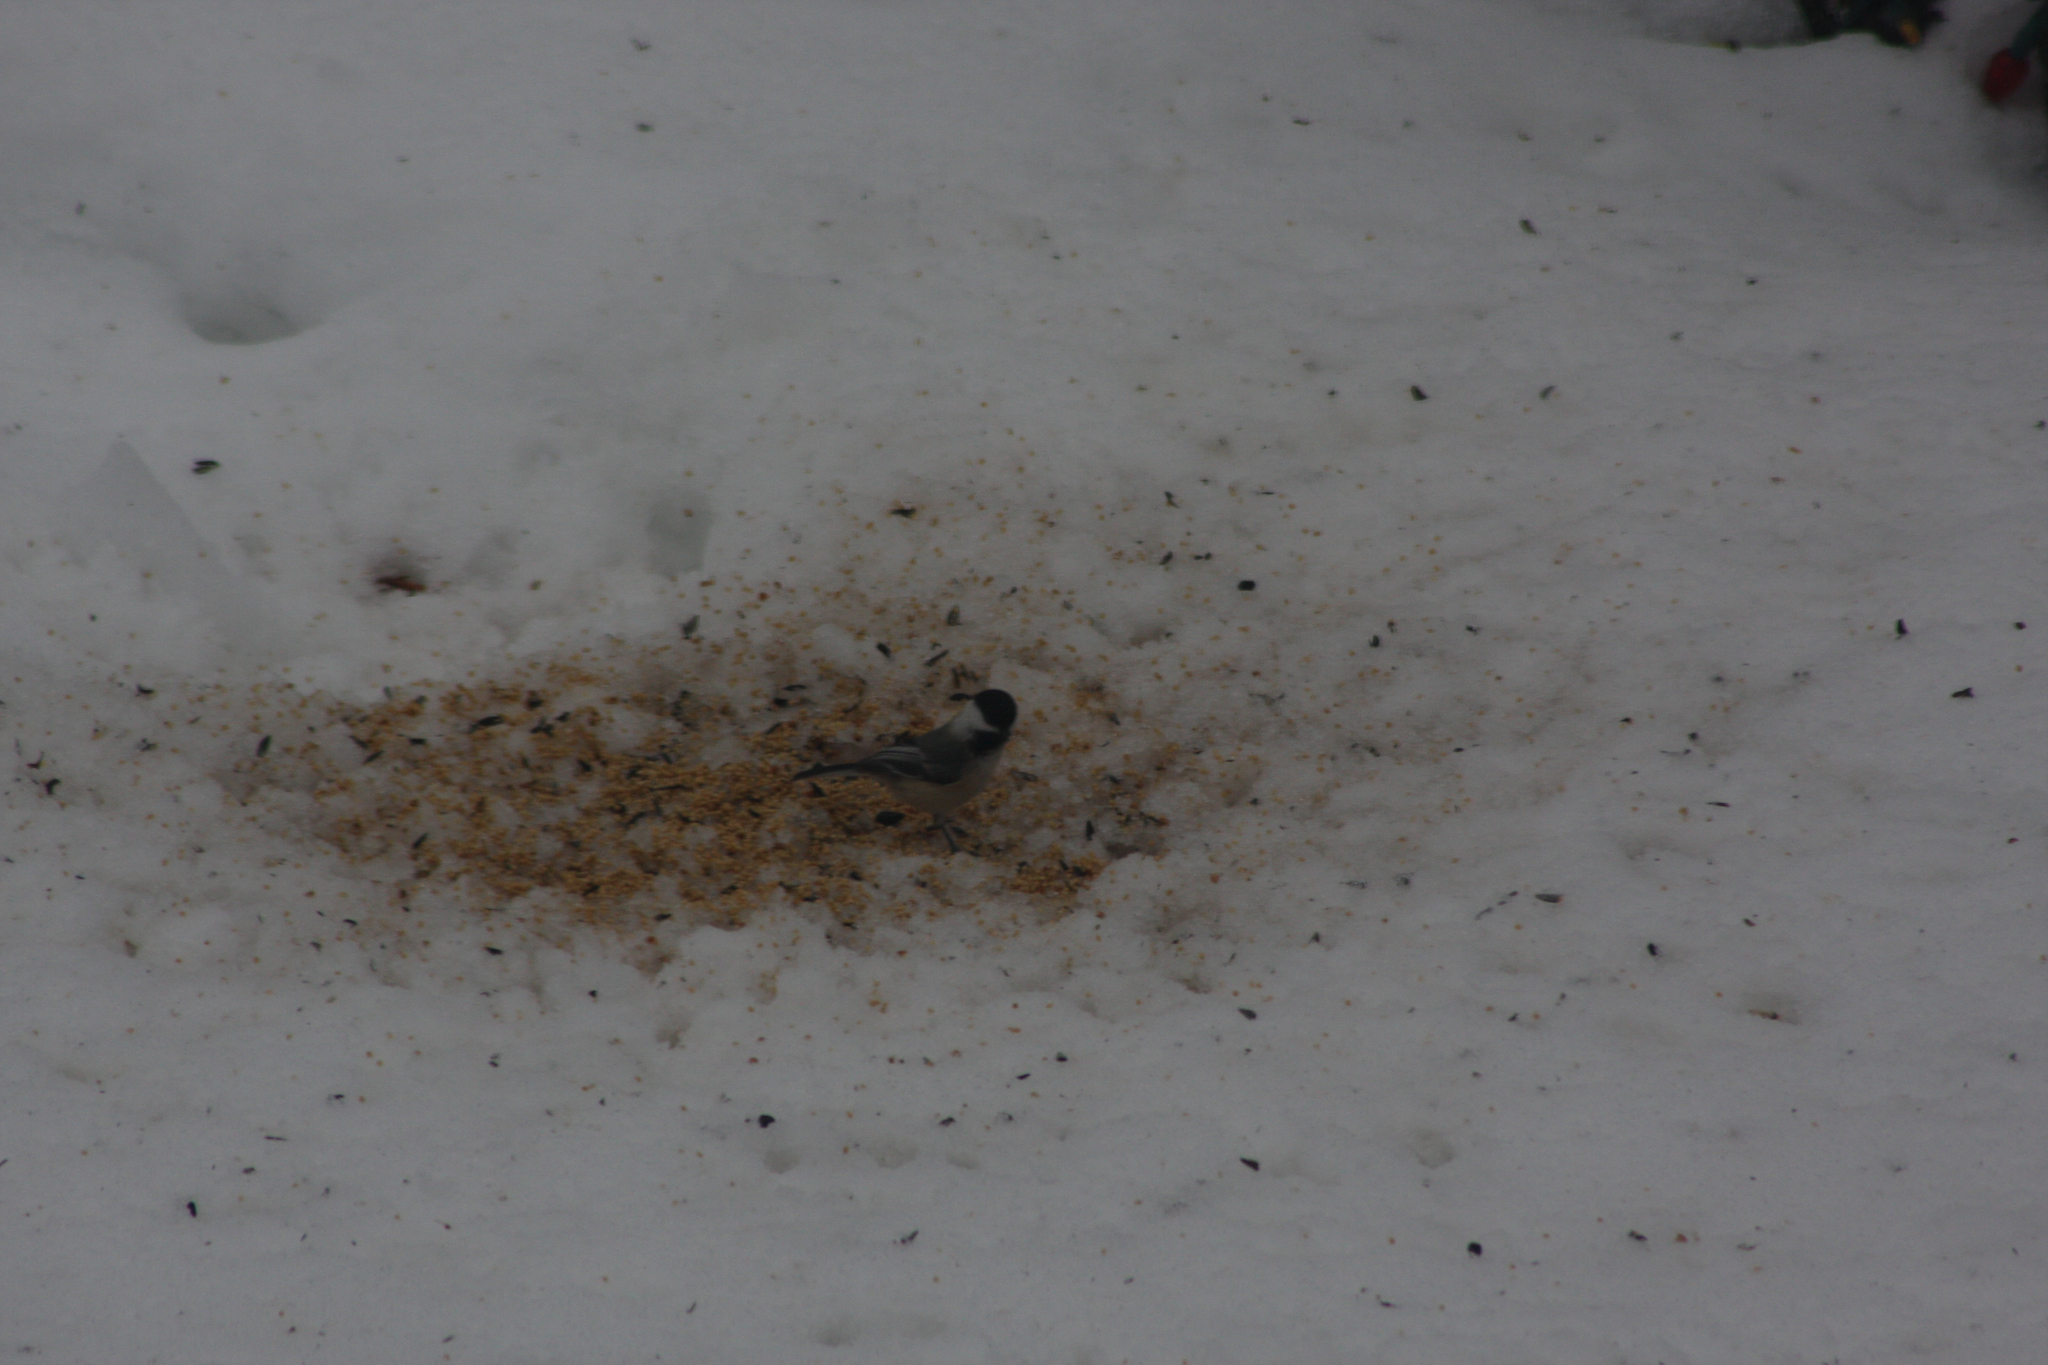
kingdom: Animalia
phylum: Chordata
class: Aves
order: Passeriformes
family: Paridae
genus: Poecile
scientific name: Poecile atricapillus
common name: Black-capped chickadee
